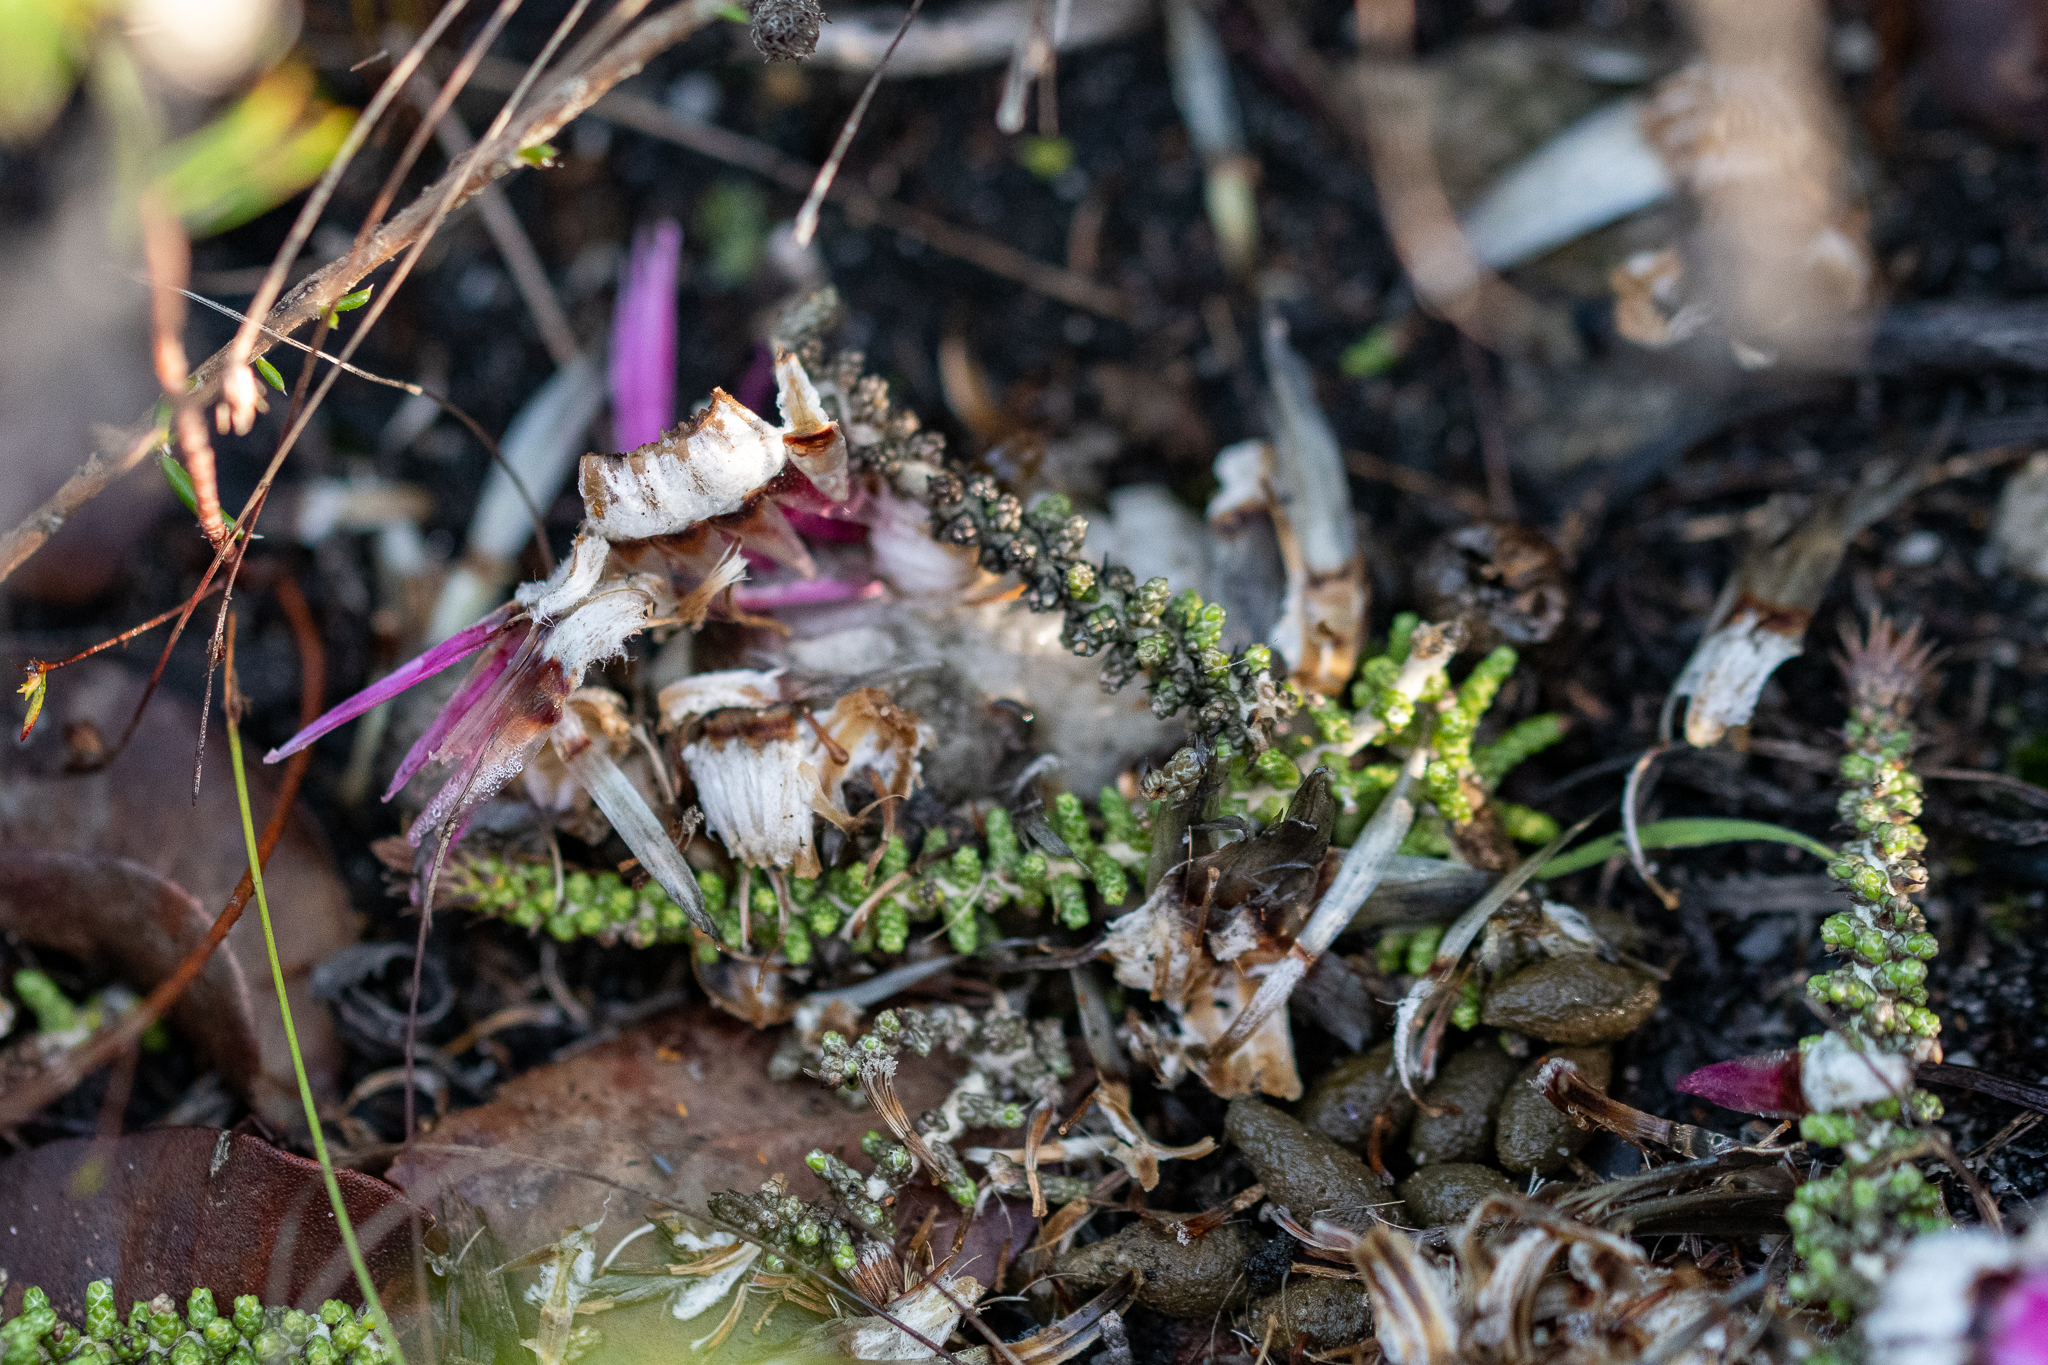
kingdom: Plantae
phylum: Tracheophyta
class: Magnoliopsida
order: Asterales
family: Asteraceae
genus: Phaenocoma
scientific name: Phaenocoma prolifera
